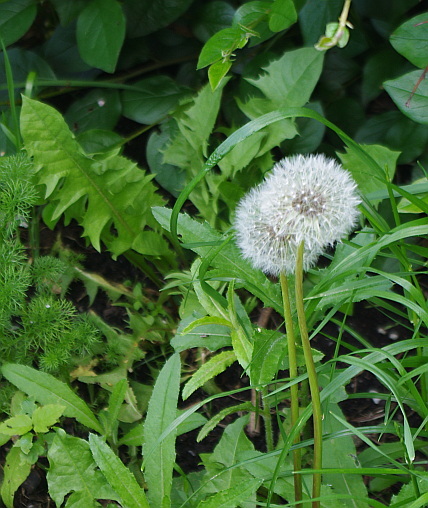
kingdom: Plantae
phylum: Tracheophyta
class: Magnoliopsida
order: Asterales
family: Asteraceae
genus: Taraxacum
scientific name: Taraxacum officinale
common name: Common dandelion
